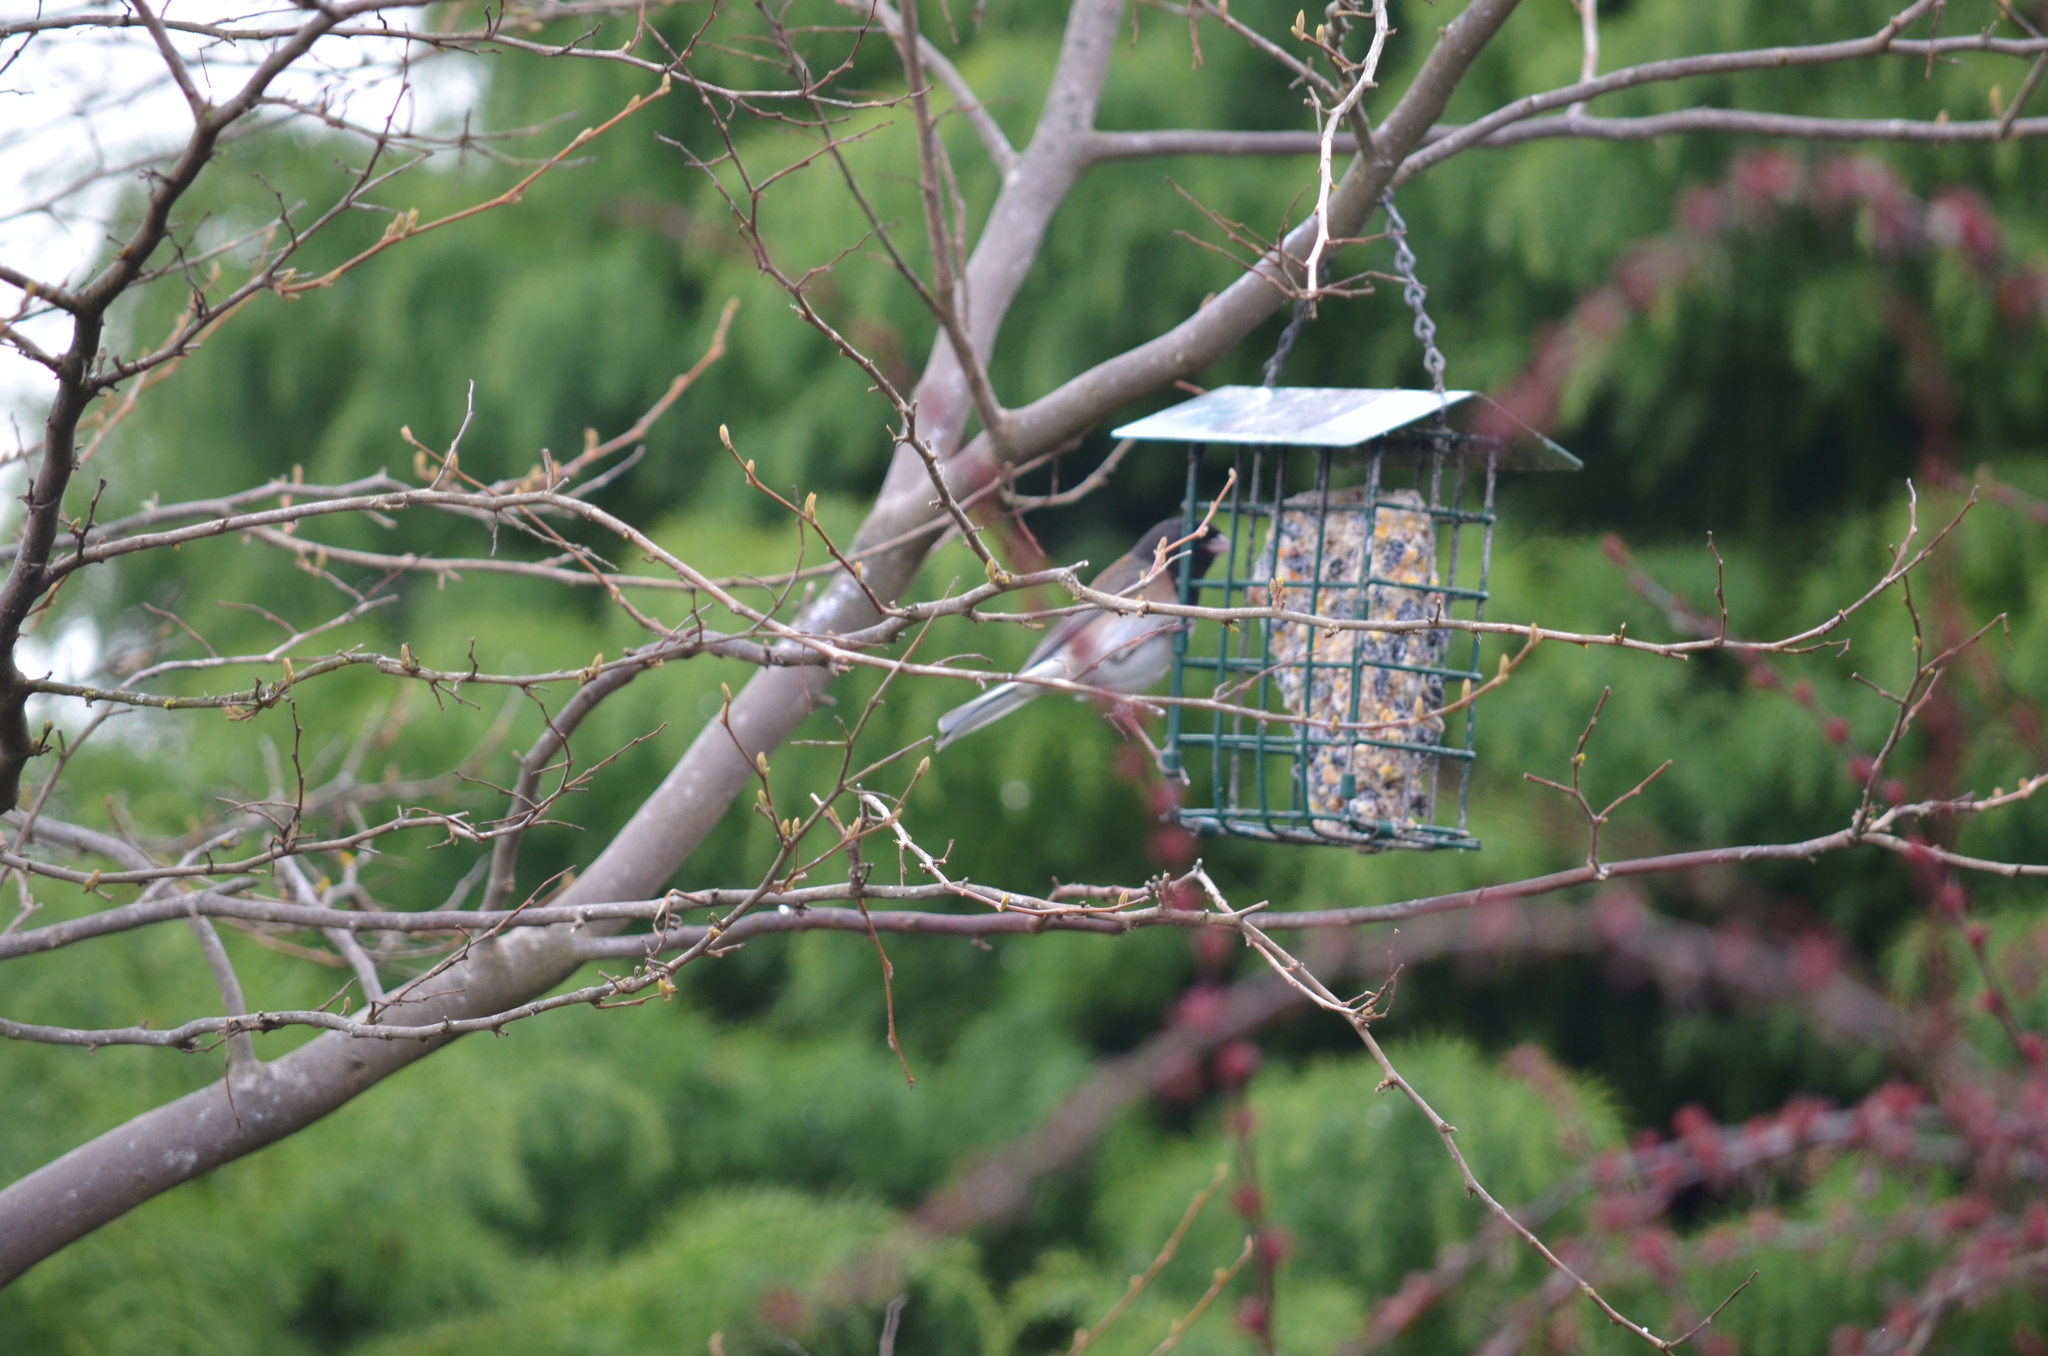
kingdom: Animalia
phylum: Chordata
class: Aves
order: Passeriformes
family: Passerellidae
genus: Junco
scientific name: Junco hyemalis
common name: Dark-eyed junco
